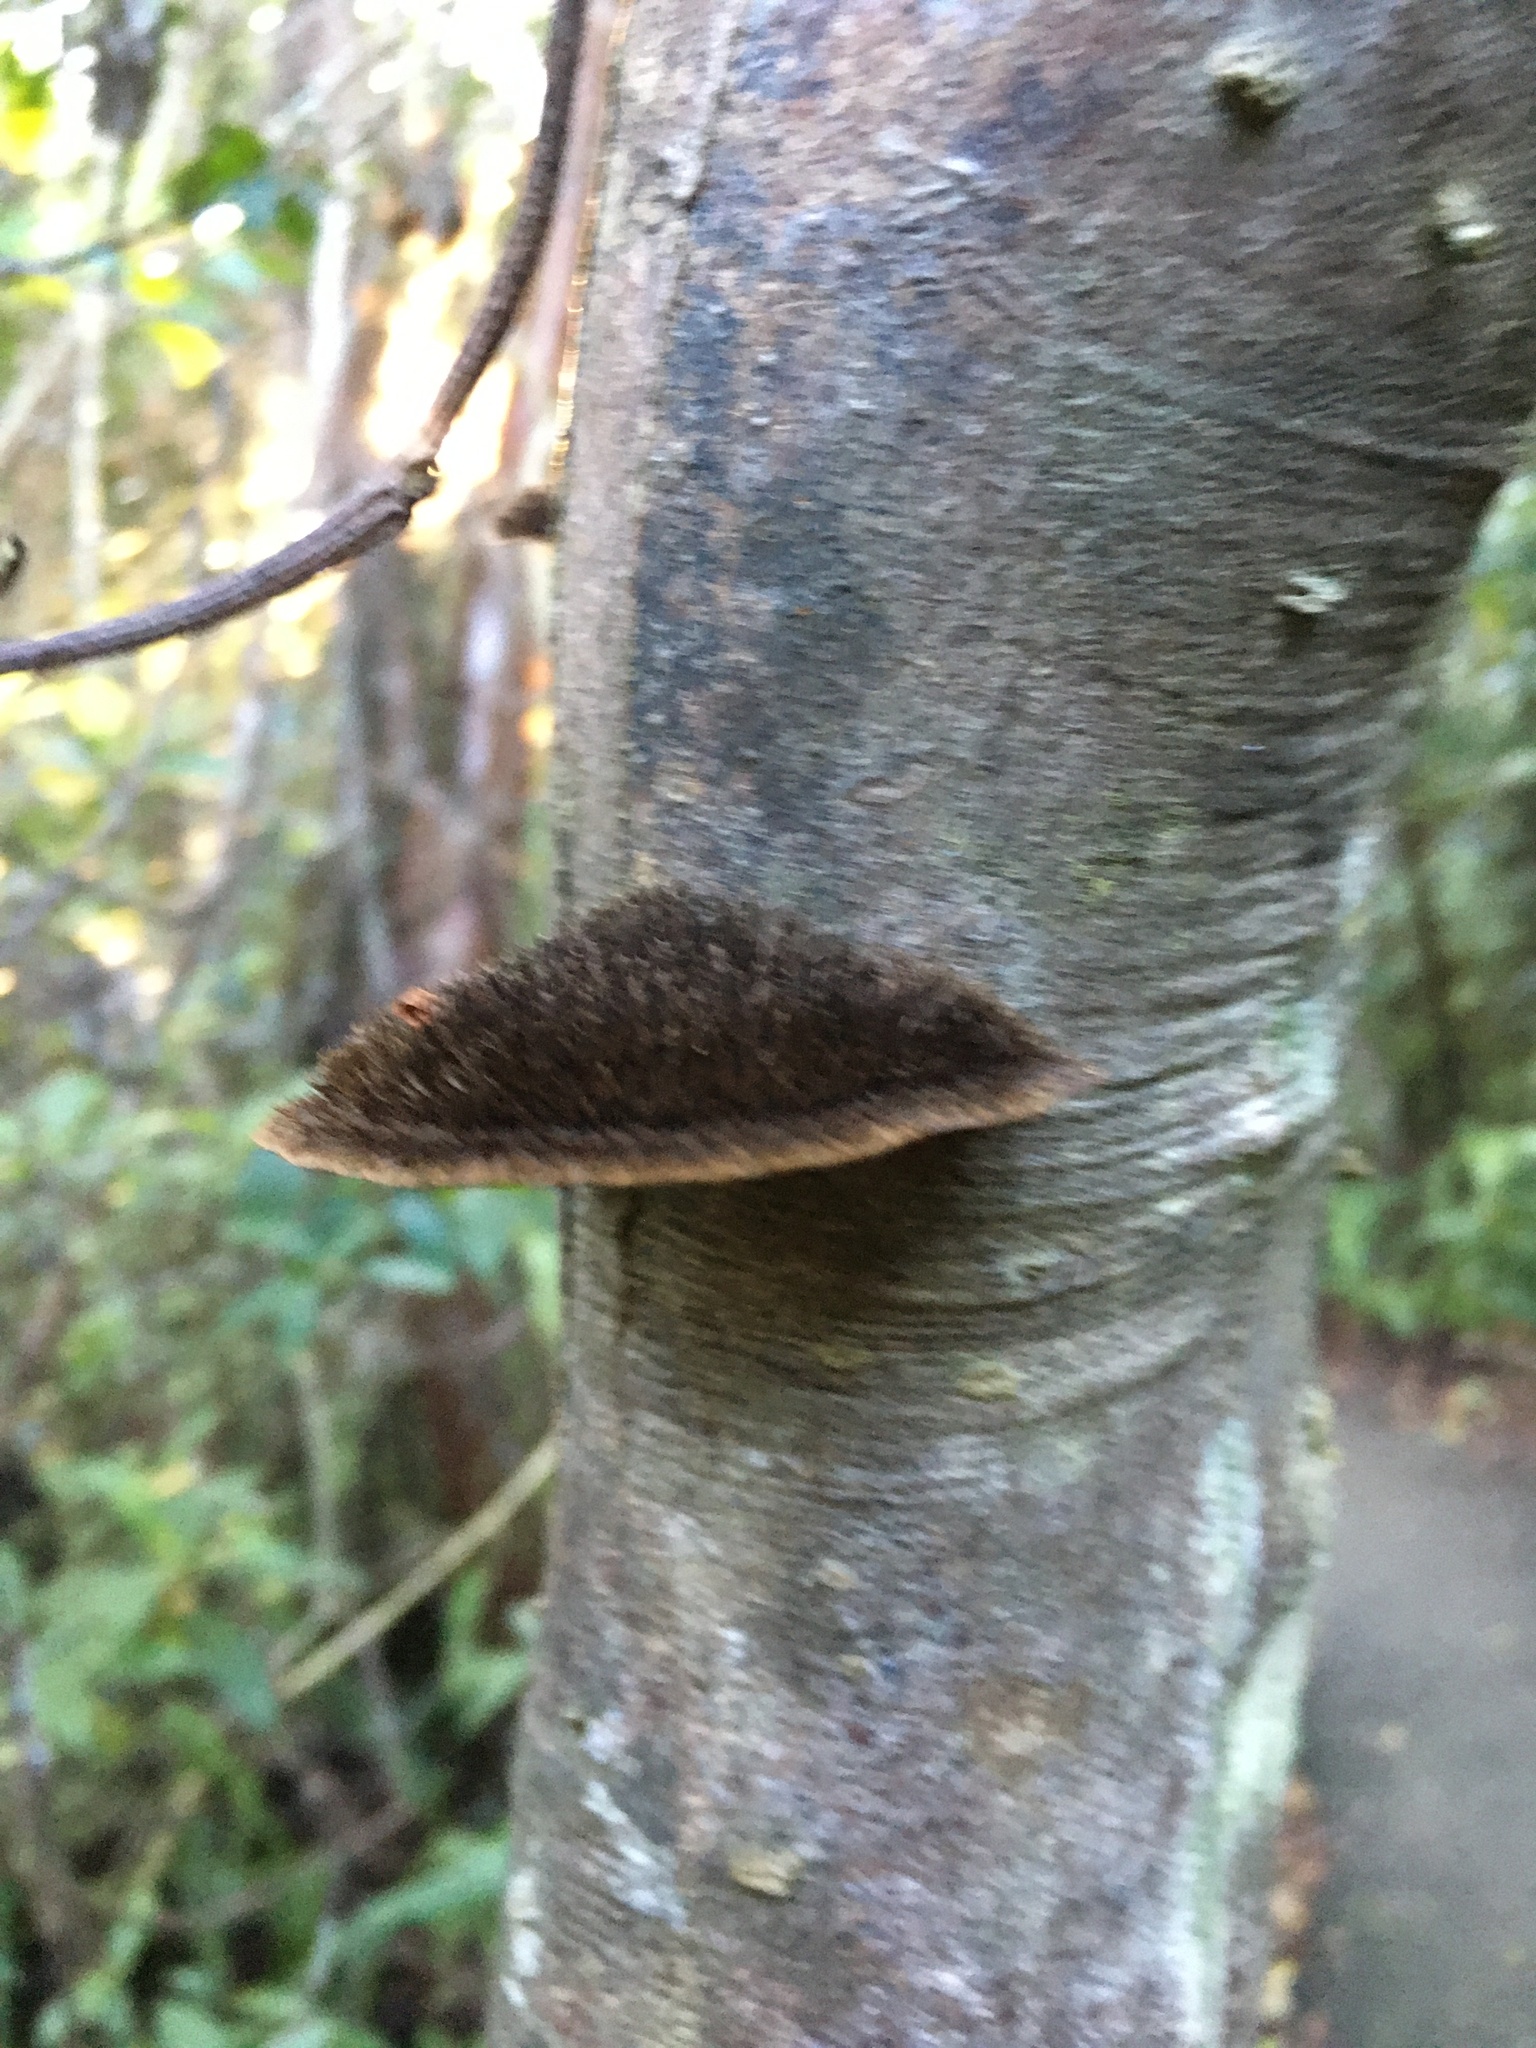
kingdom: Fungi
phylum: Basidiomycota
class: Agaricomycetes
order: Polyporales
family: Cerrenaceae
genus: Cerrena
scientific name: Cerrena hydnoides
